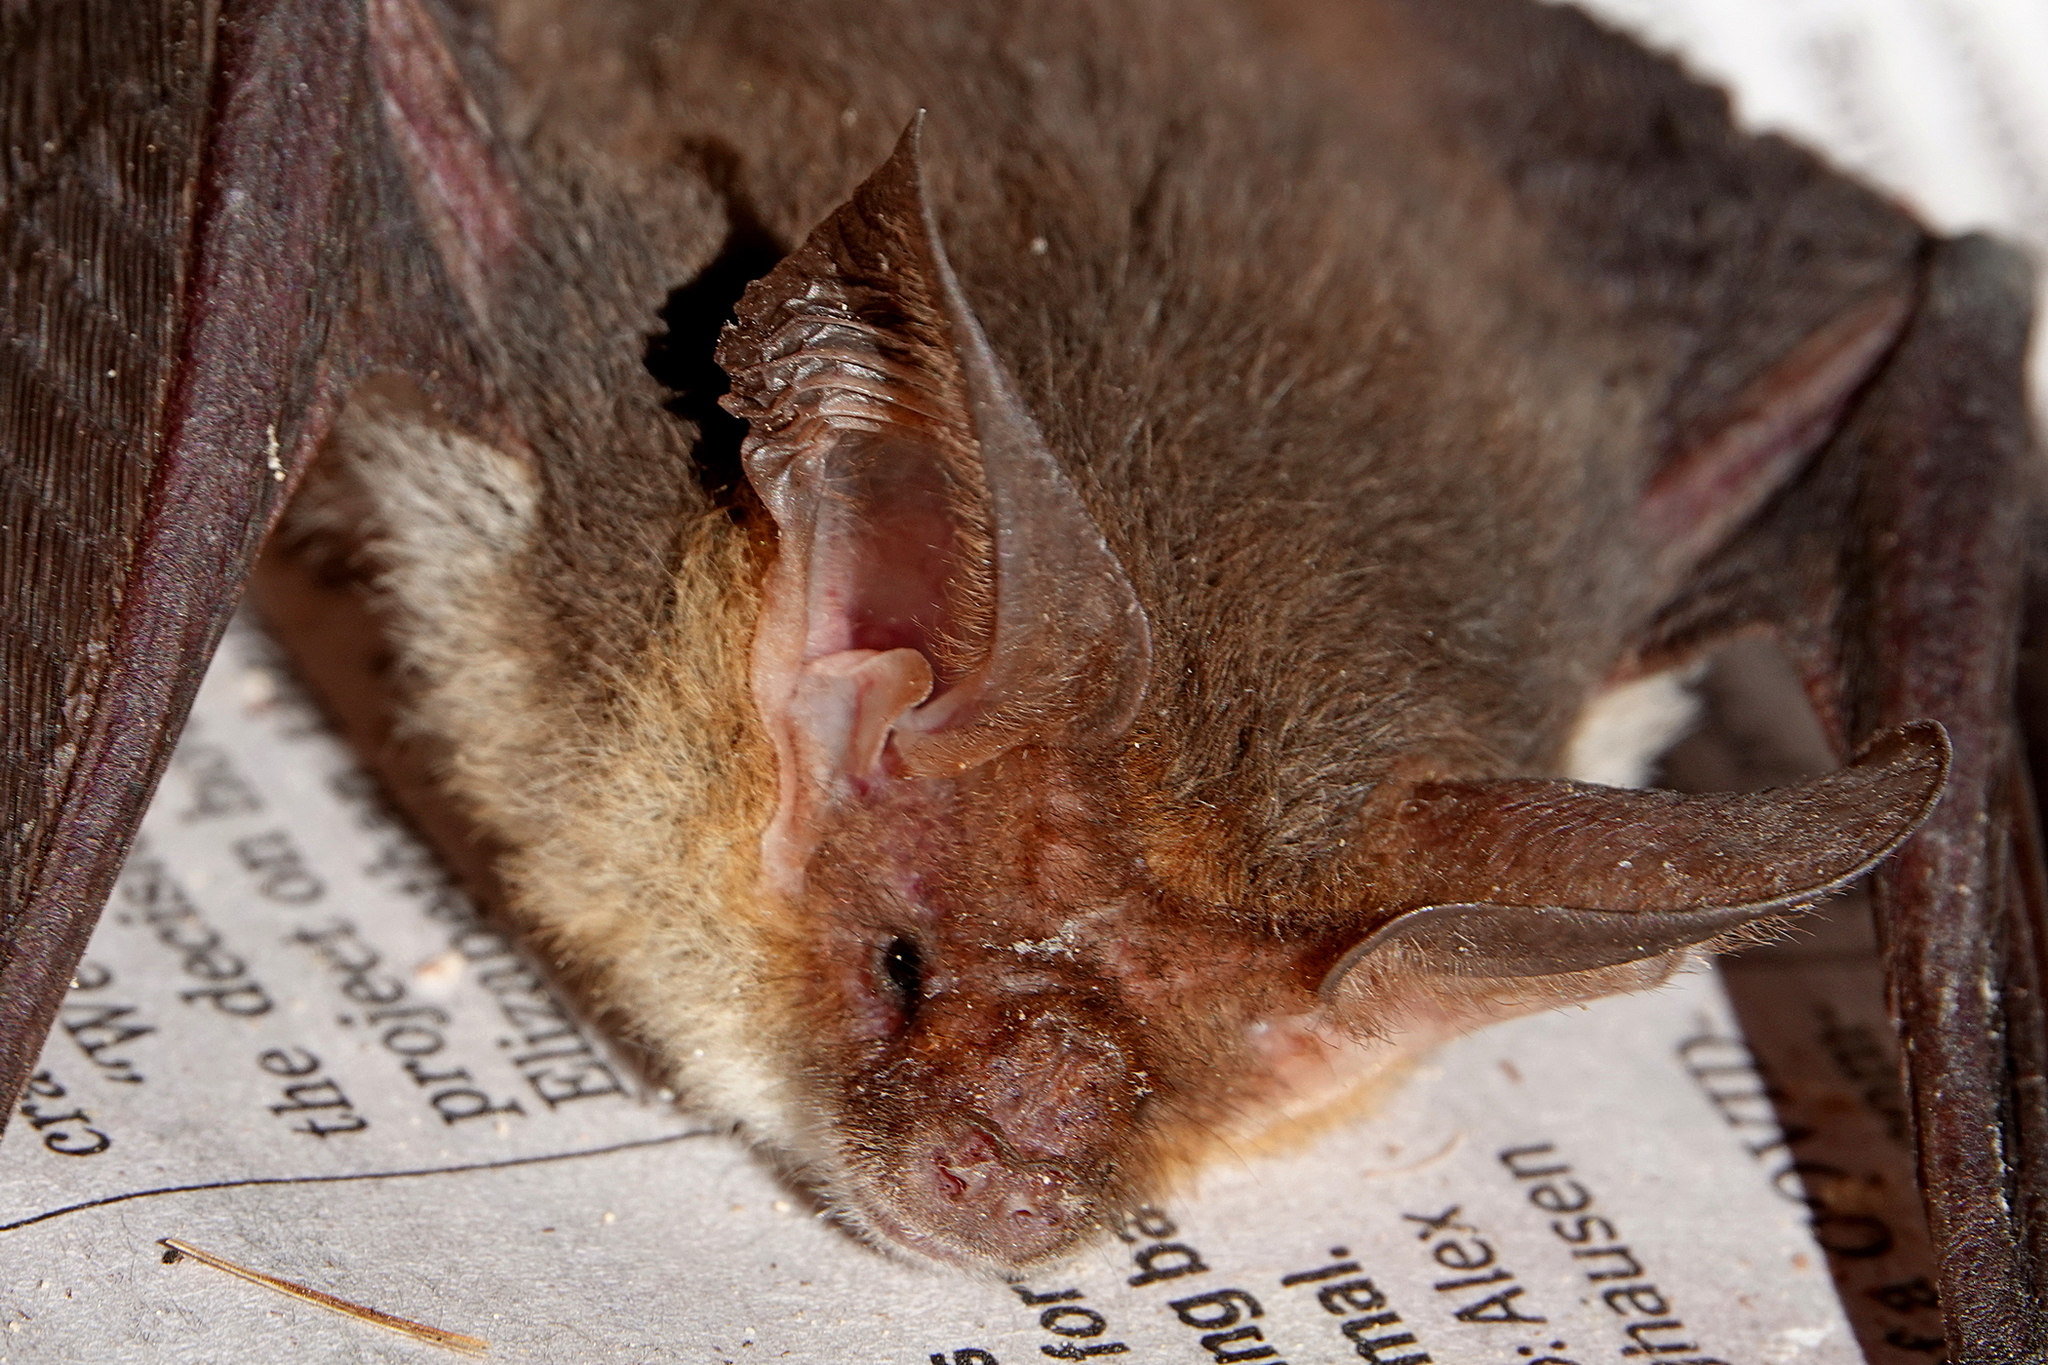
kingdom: Animalia
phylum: Chordata
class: Mammalia
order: Chiroptera
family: Vespertilionidae
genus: Nyctophilus
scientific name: Nyctophilus geoffroyi
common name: Lesser long-eared bat
